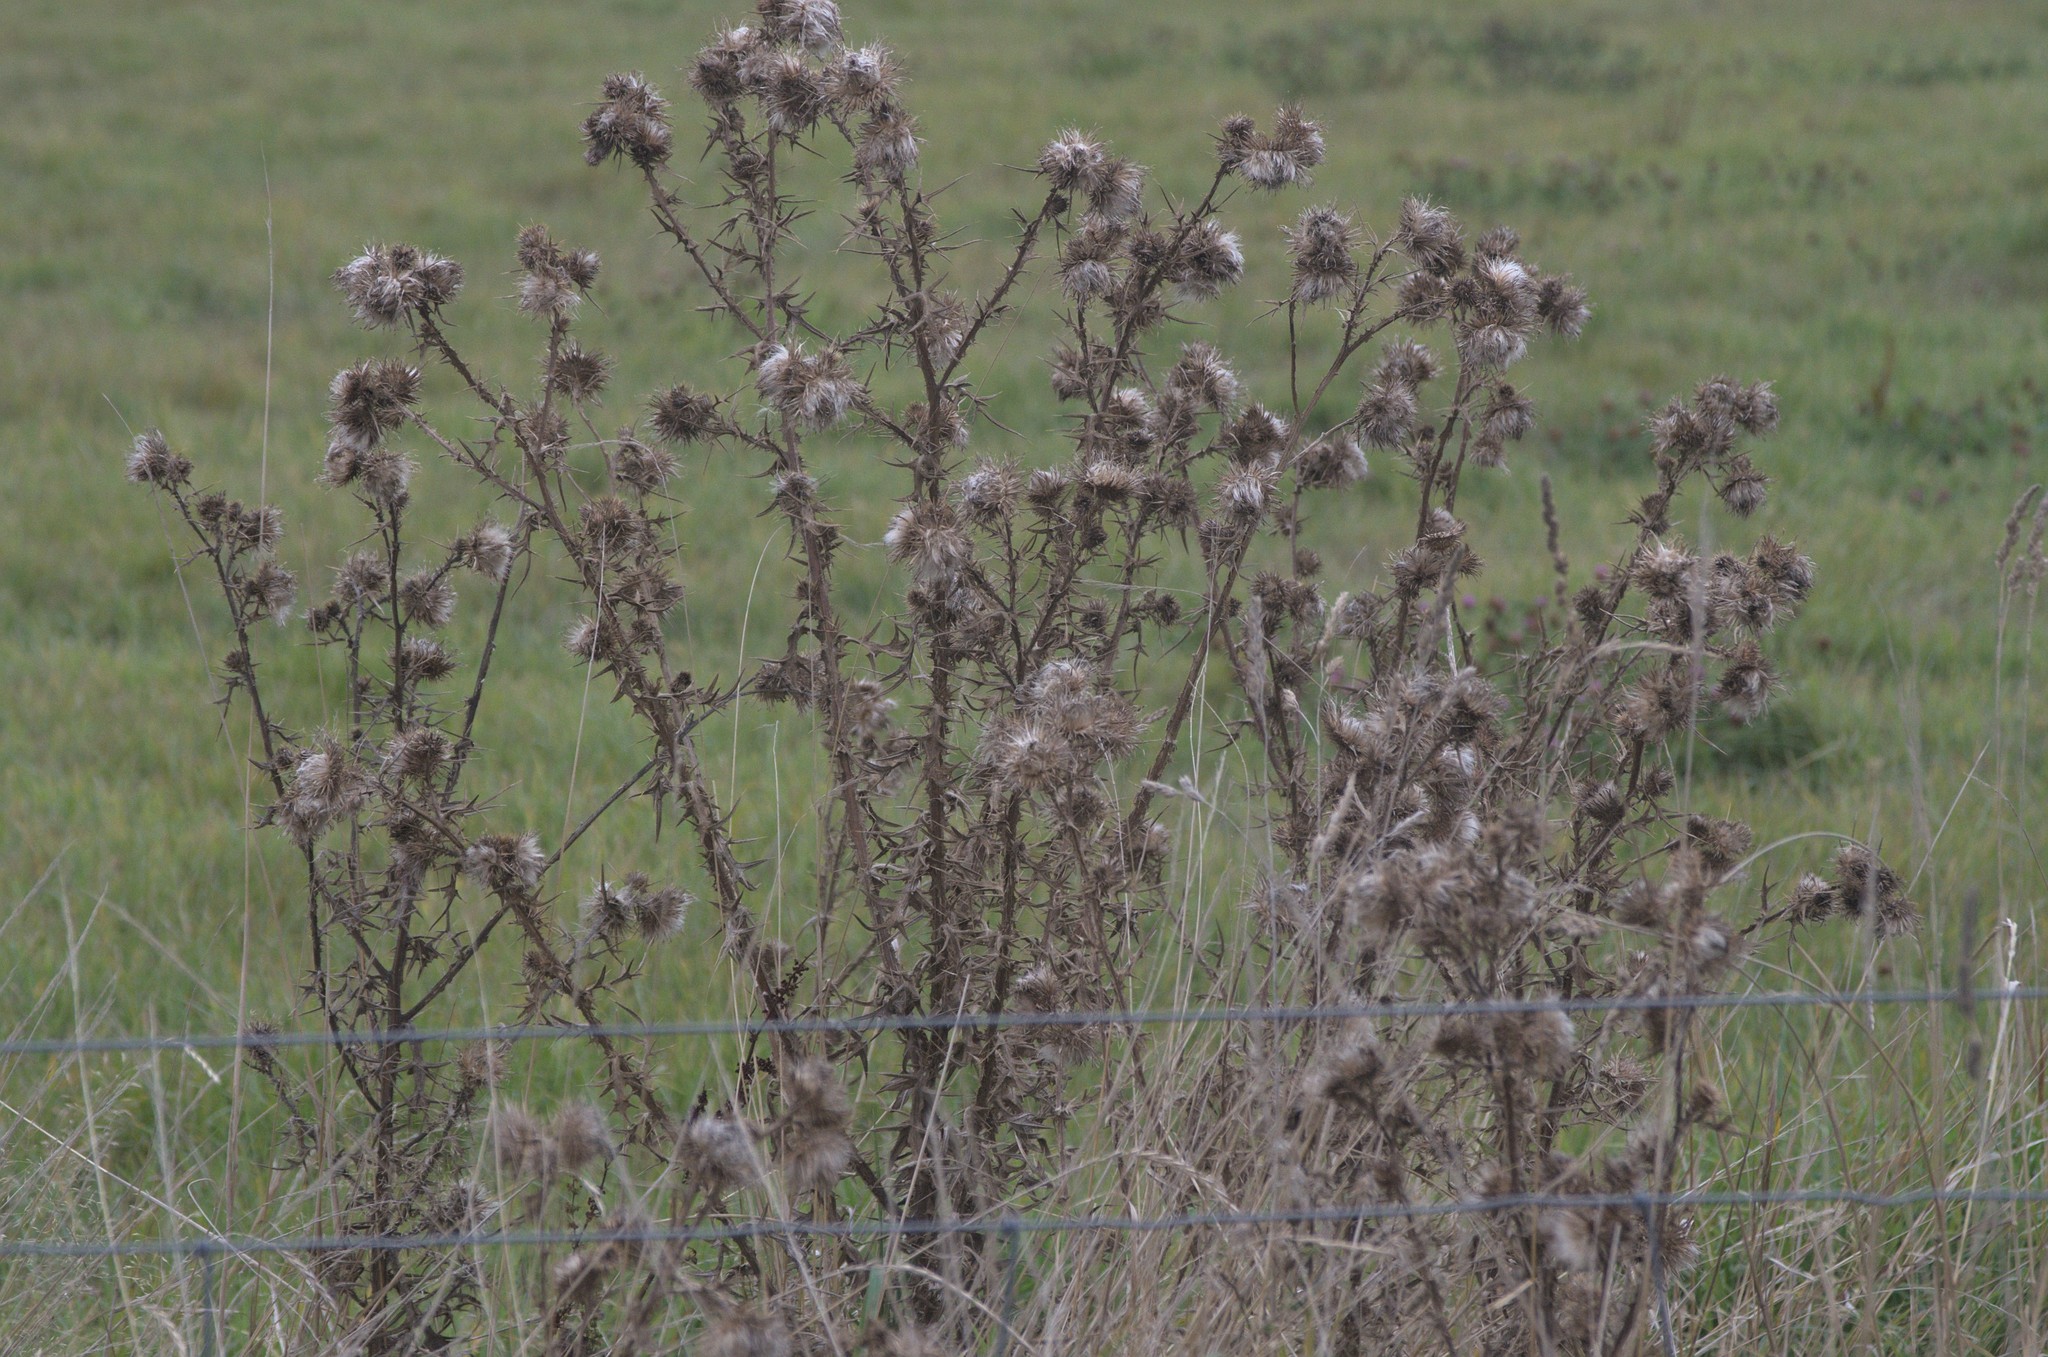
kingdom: Plantae
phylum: Tracheophyta
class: Magnoliopsida
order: Asterales
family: Asteraceae
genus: Cirsium
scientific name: Cirsium vulgare
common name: Bull thistle
